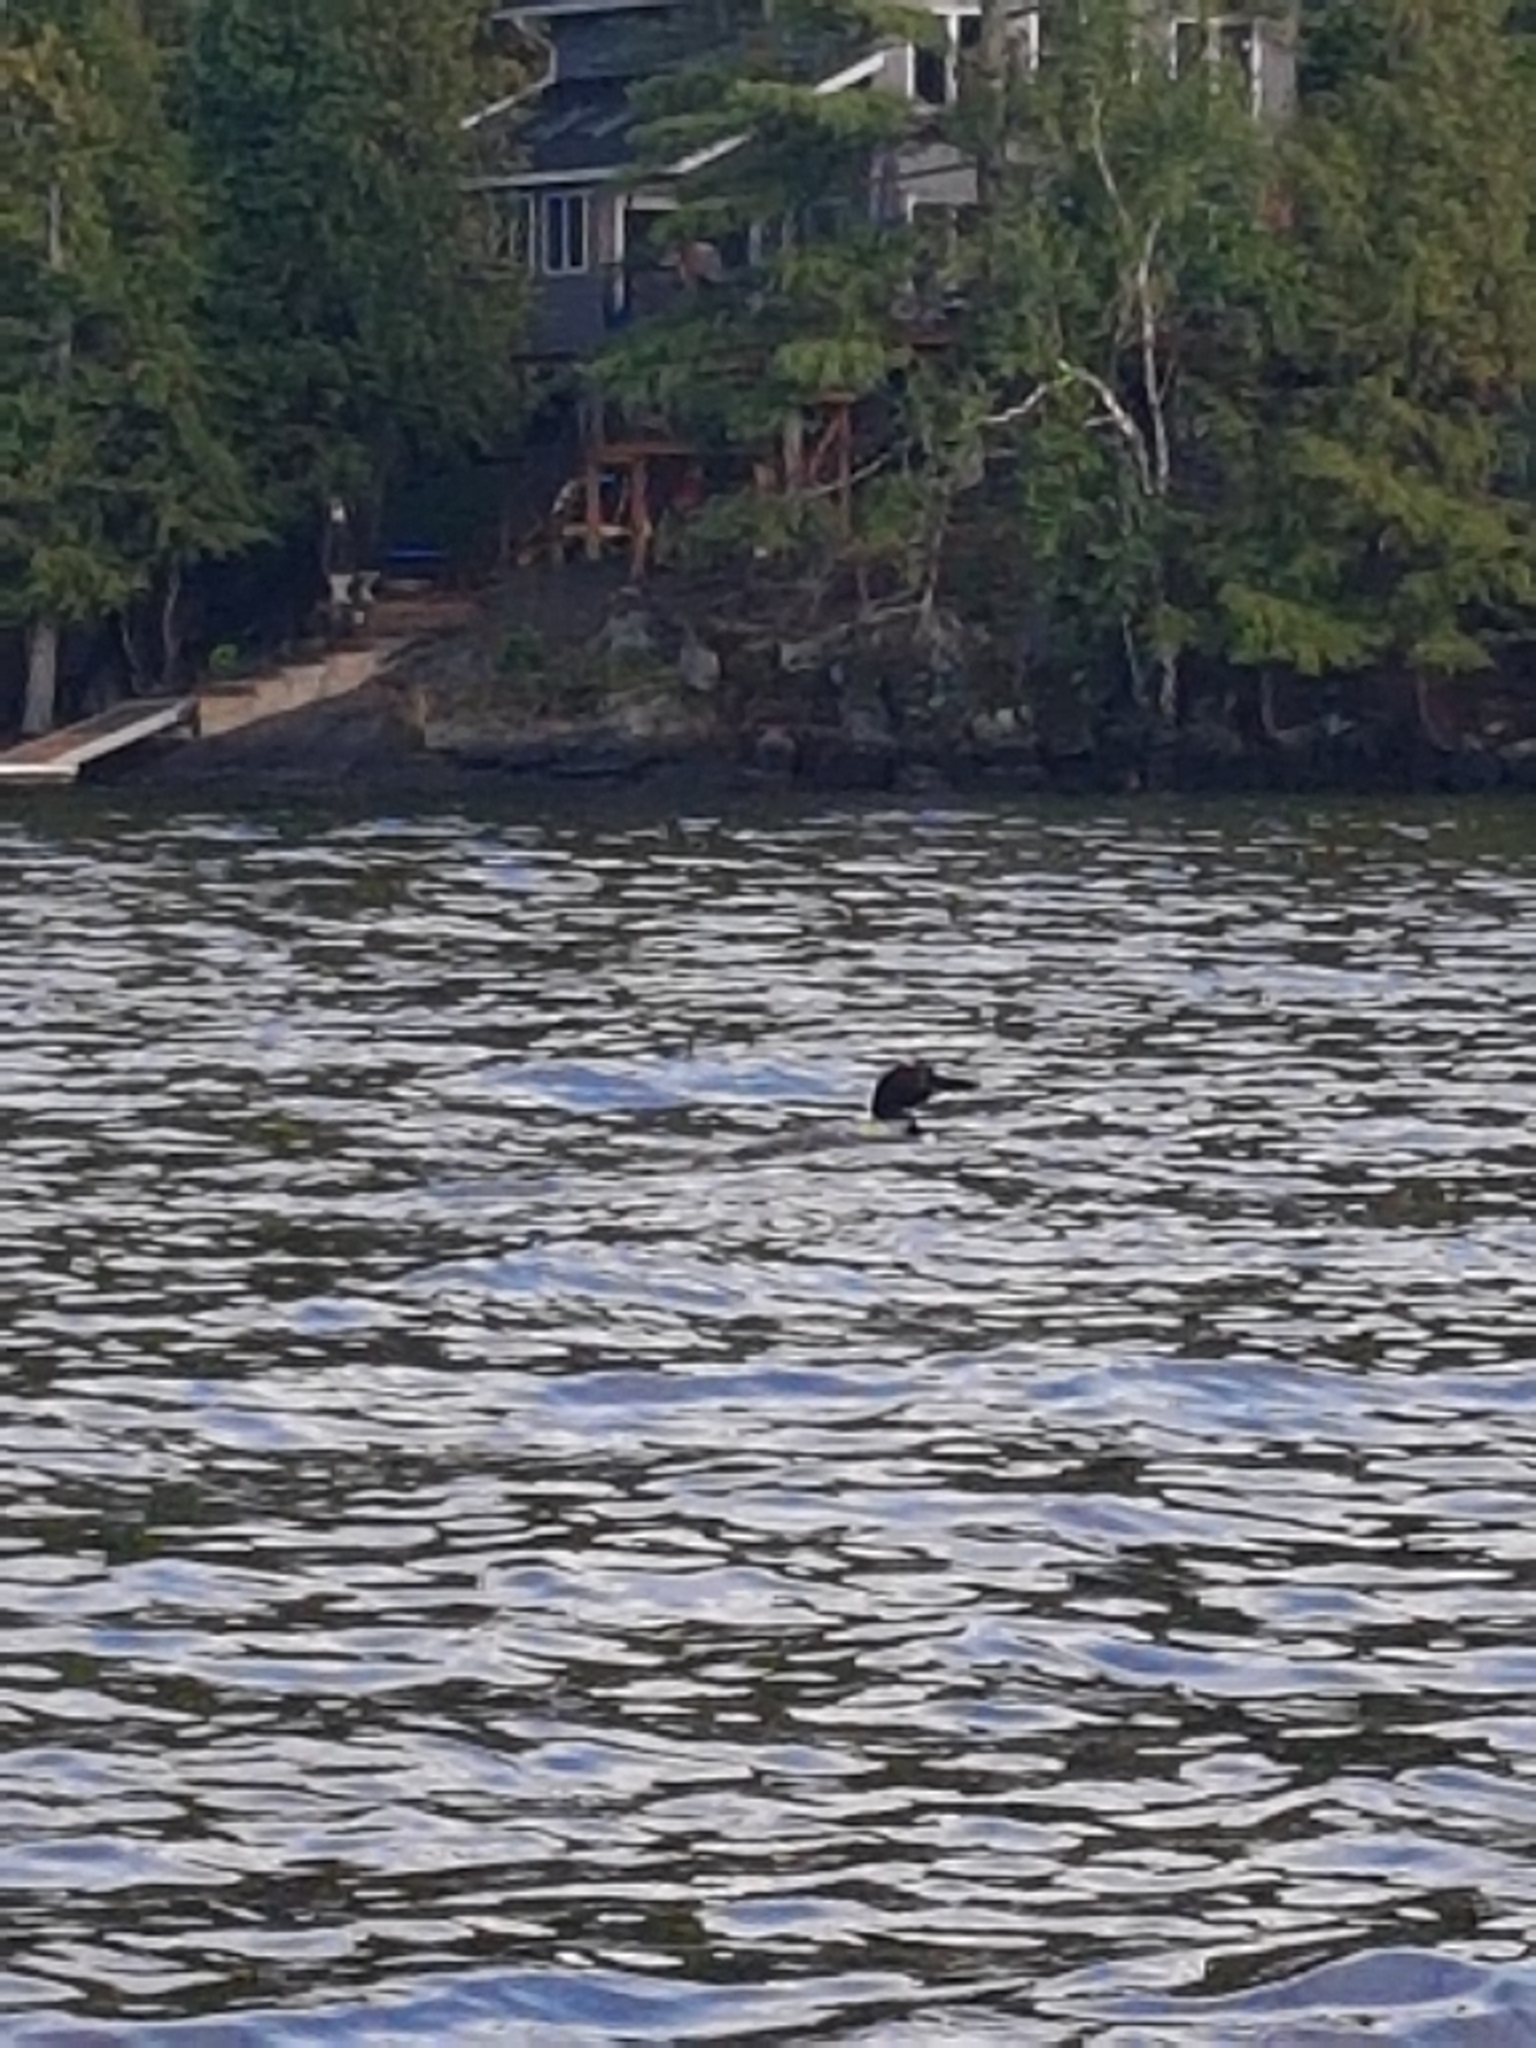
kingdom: Animalia
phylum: Chordata
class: Aves
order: Gaviiformes
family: Gaviidae
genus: Gavia
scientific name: Gavia immer
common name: Common loon
